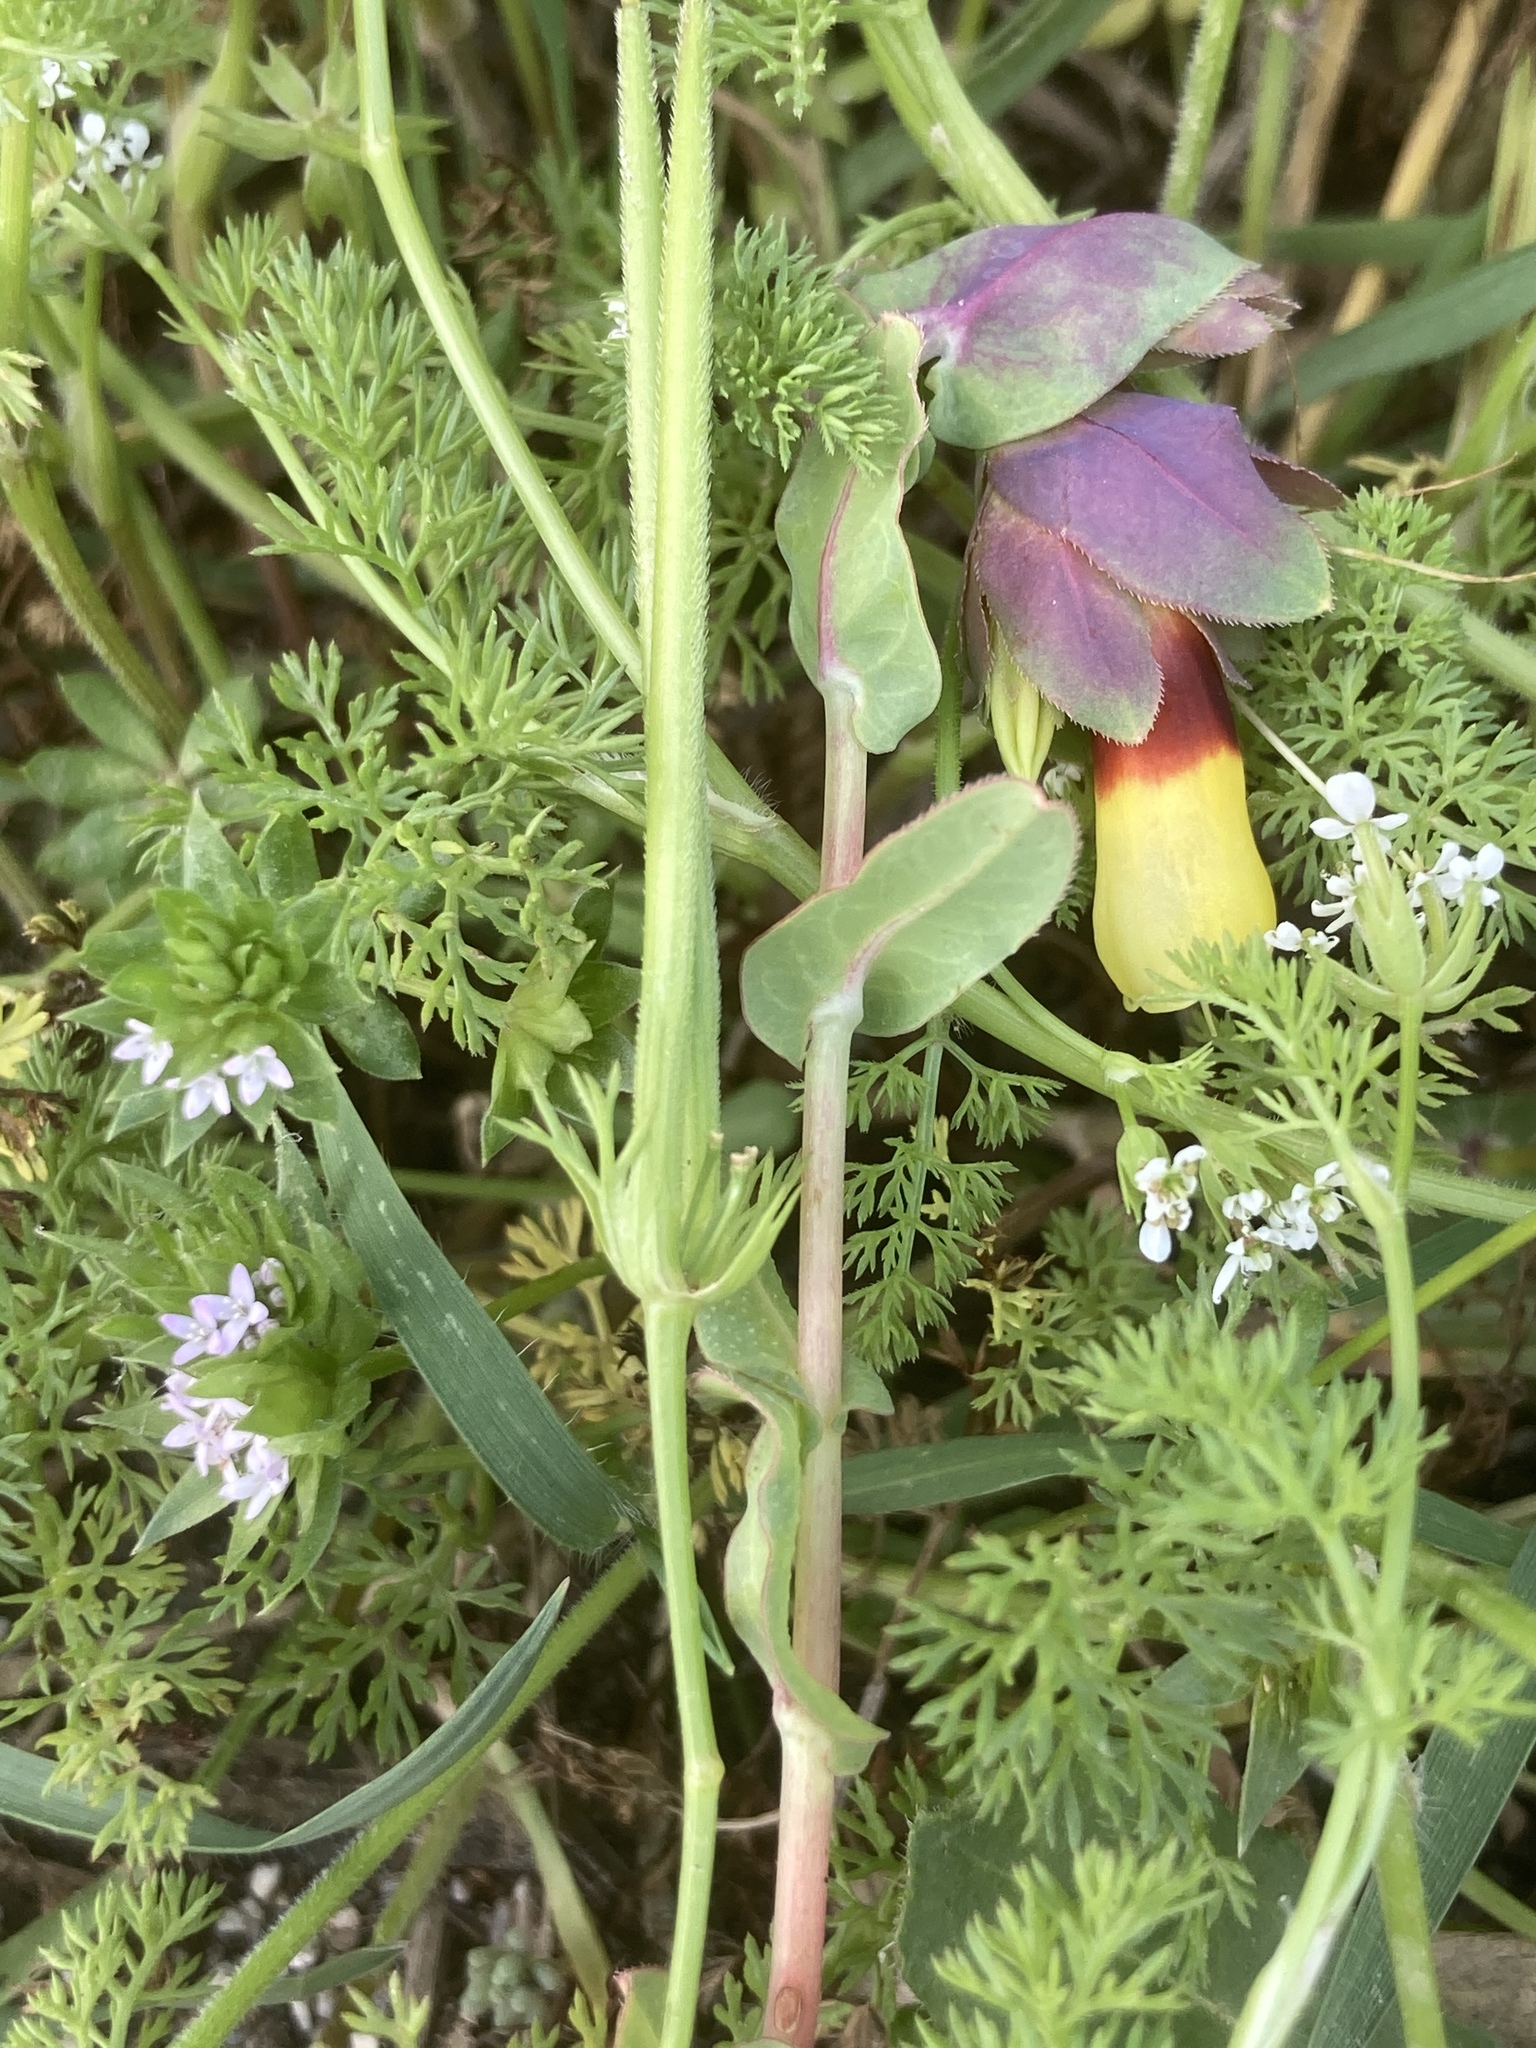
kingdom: Plantae
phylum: Tracheophyta
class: Magnoliopsida
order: Gentianales
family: Rubiaceae
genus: Sherardia
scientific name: Sherardia arvensis
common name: Field madder
